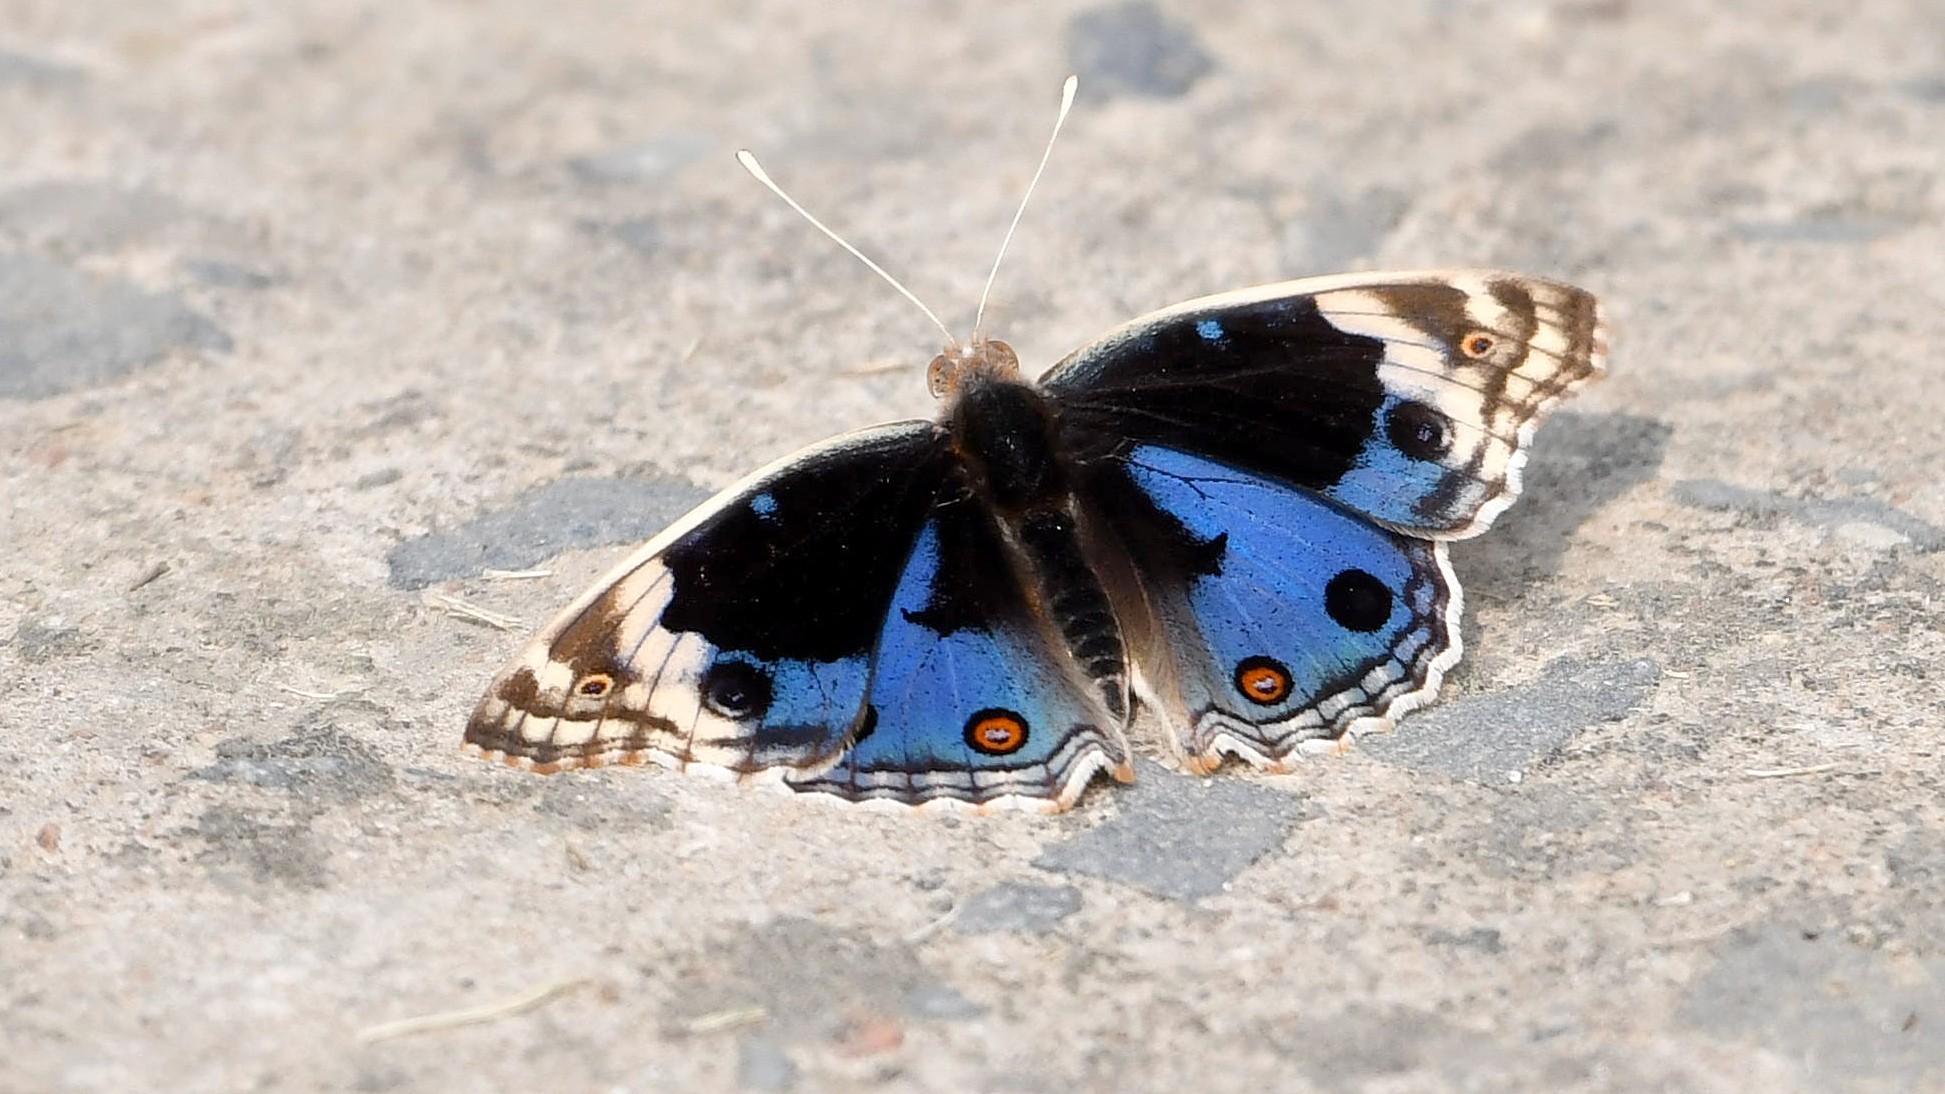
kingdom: Animalia
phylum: Arthropoda
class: Insecta
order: Lepidoptera
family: Nymphalidae
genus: Junonia
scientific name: Junonia orithya
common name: Blue pansy
